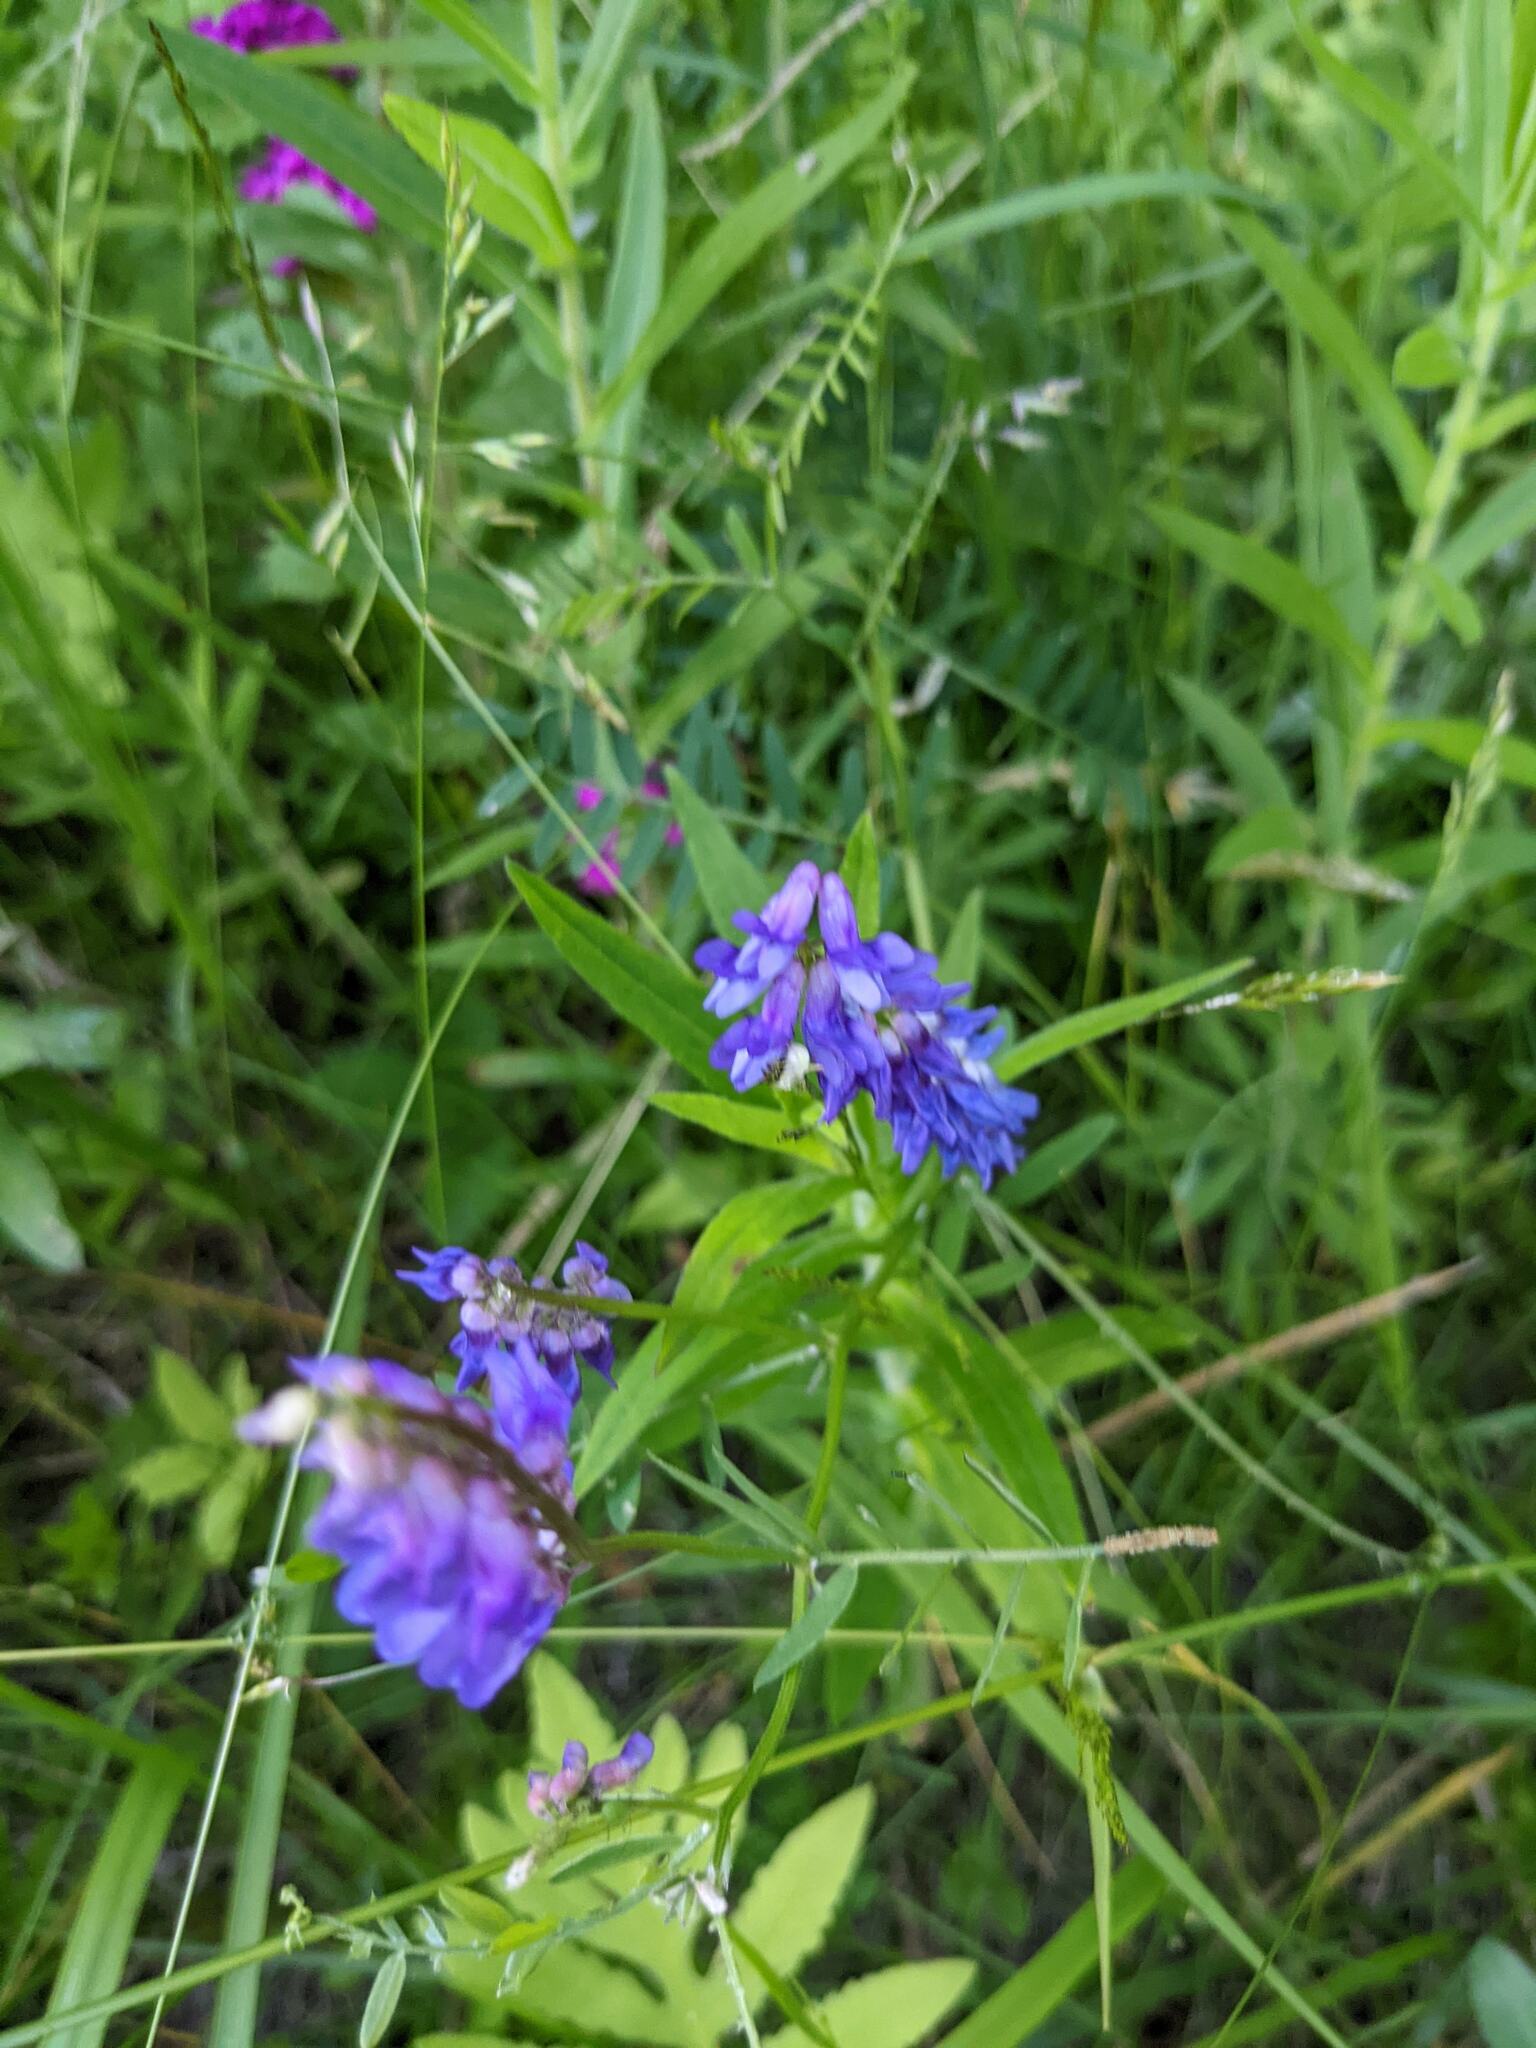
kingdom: Plantae
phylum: Tracheophyta
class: Magnoliopsida
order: Fabales
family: Fabaceae
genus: Vicia
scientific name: Vicia cracca
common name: Bird vetch
